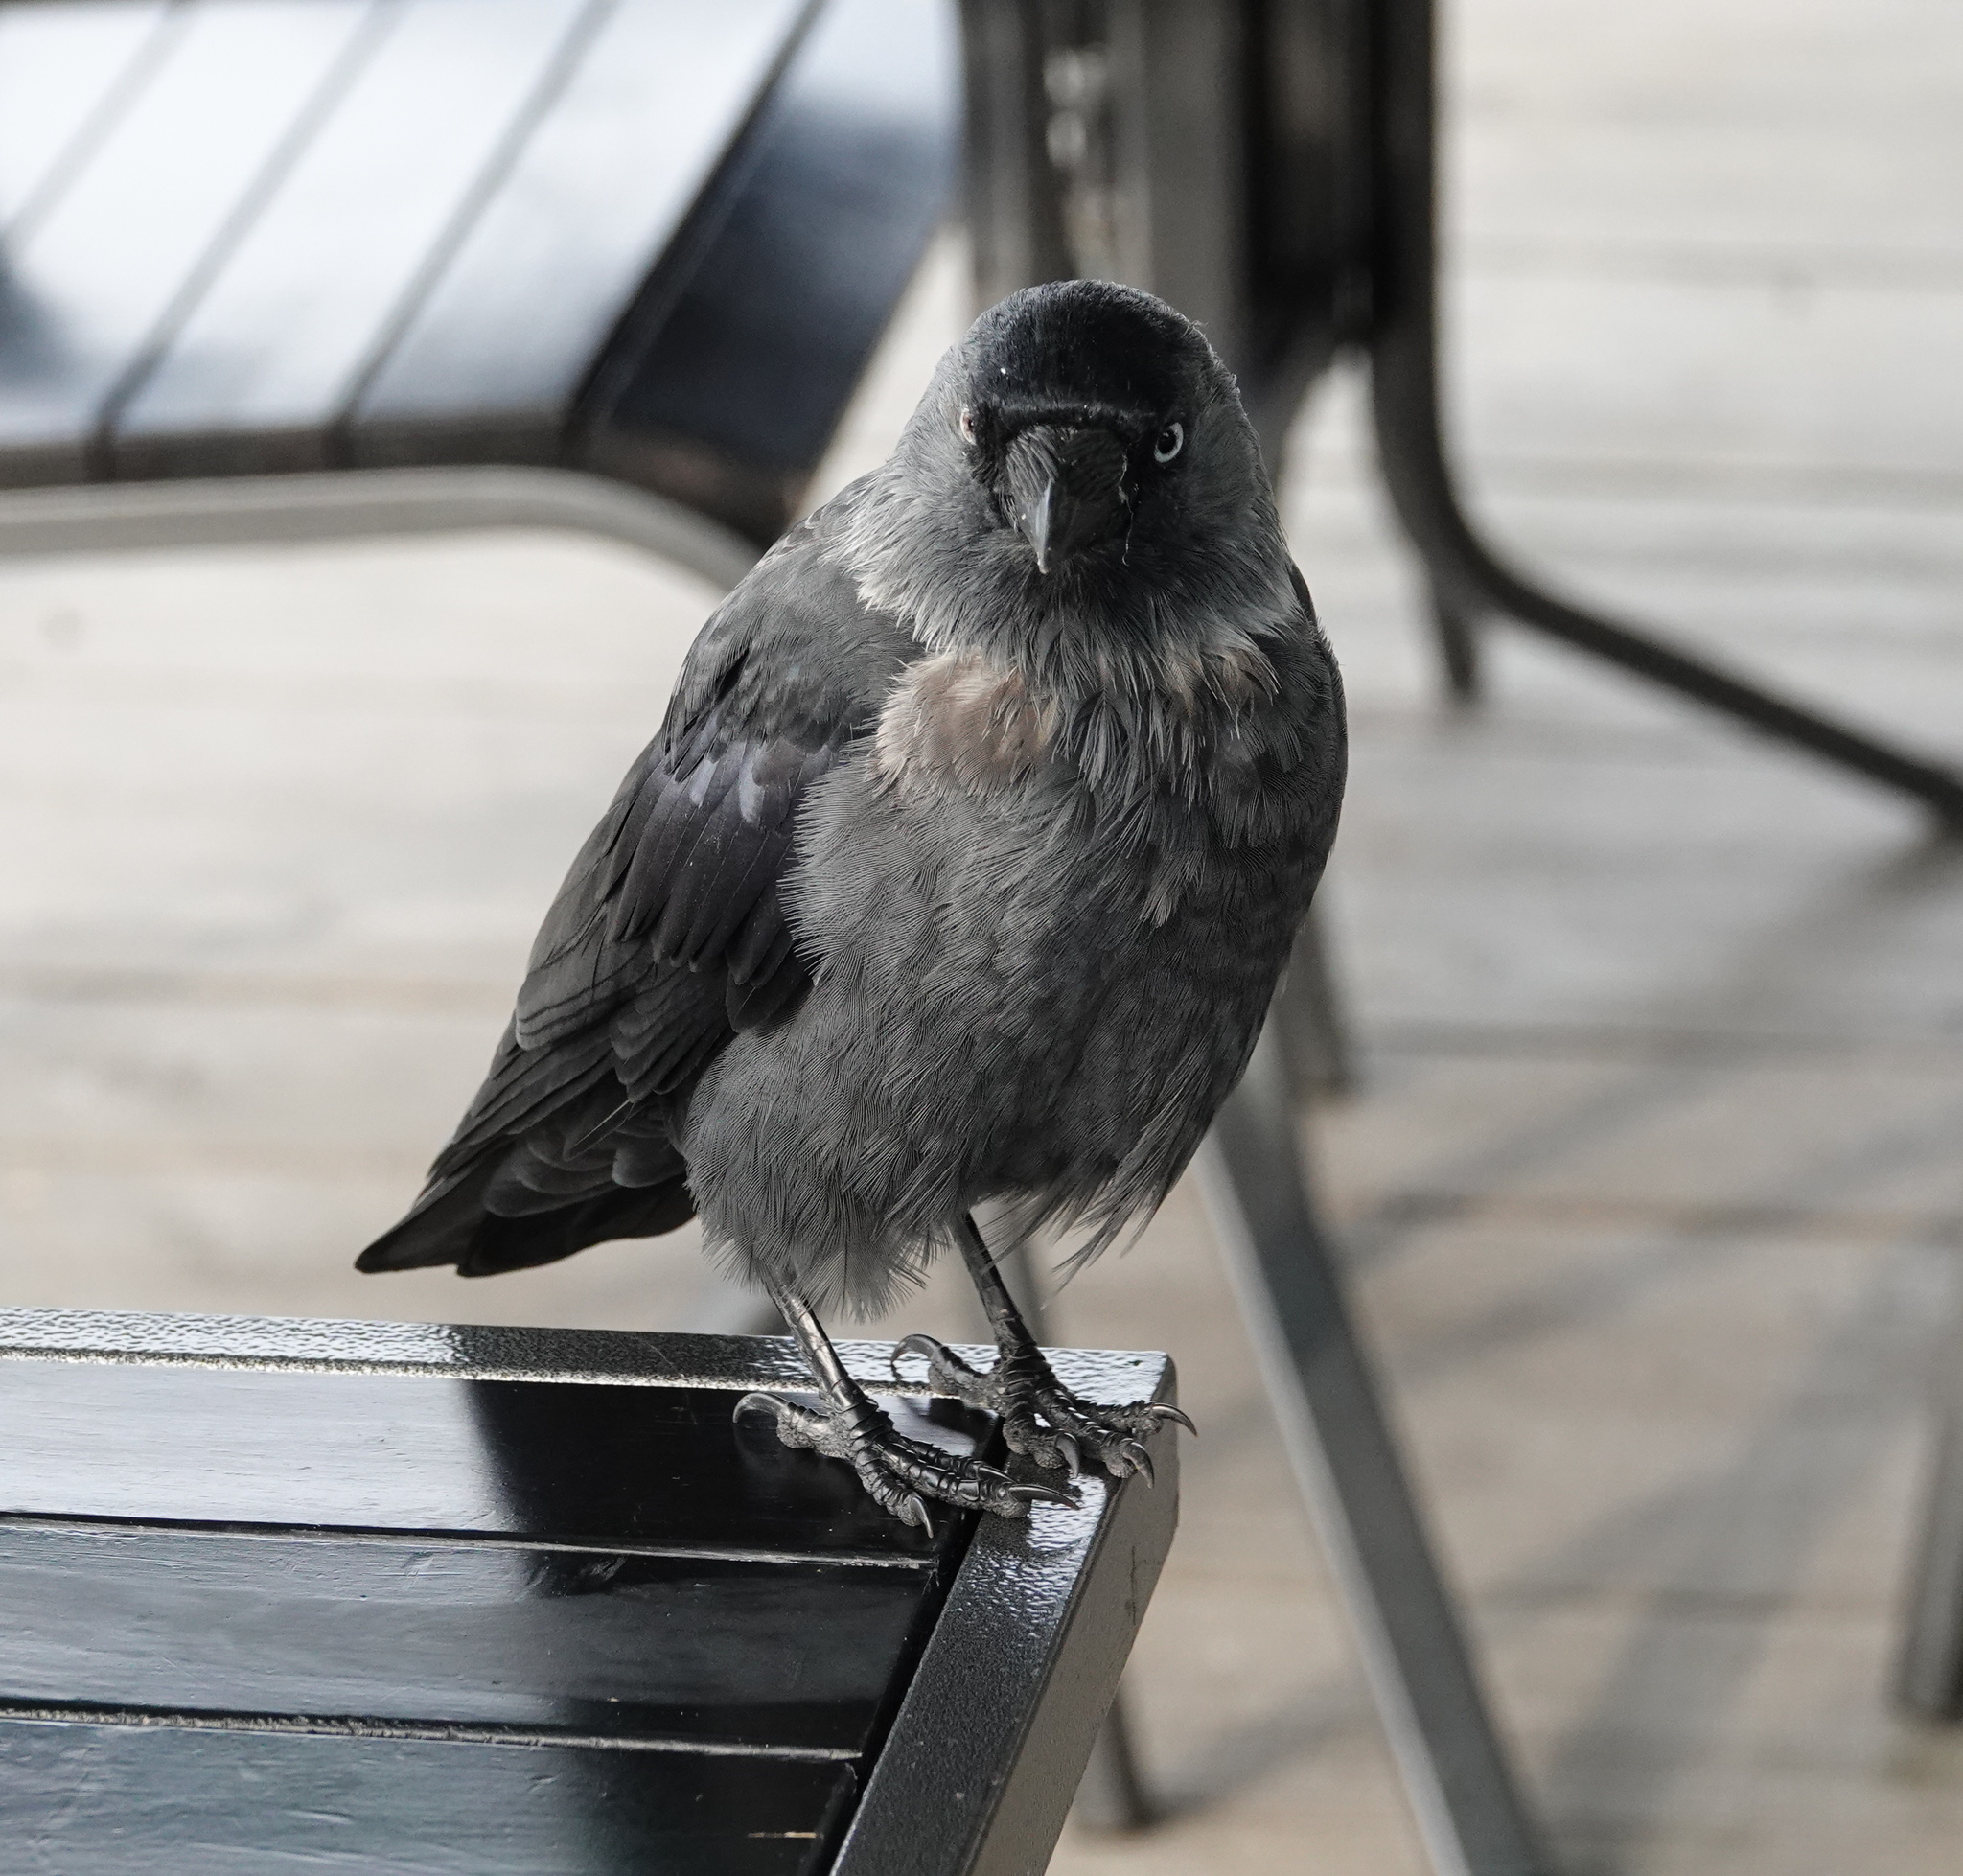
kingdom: Animalia
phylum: Chordata
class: Aves
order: Passeriformes
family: Corvidae
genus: Coloeus
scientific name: Coloeus monedula
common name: Western jackdaw
